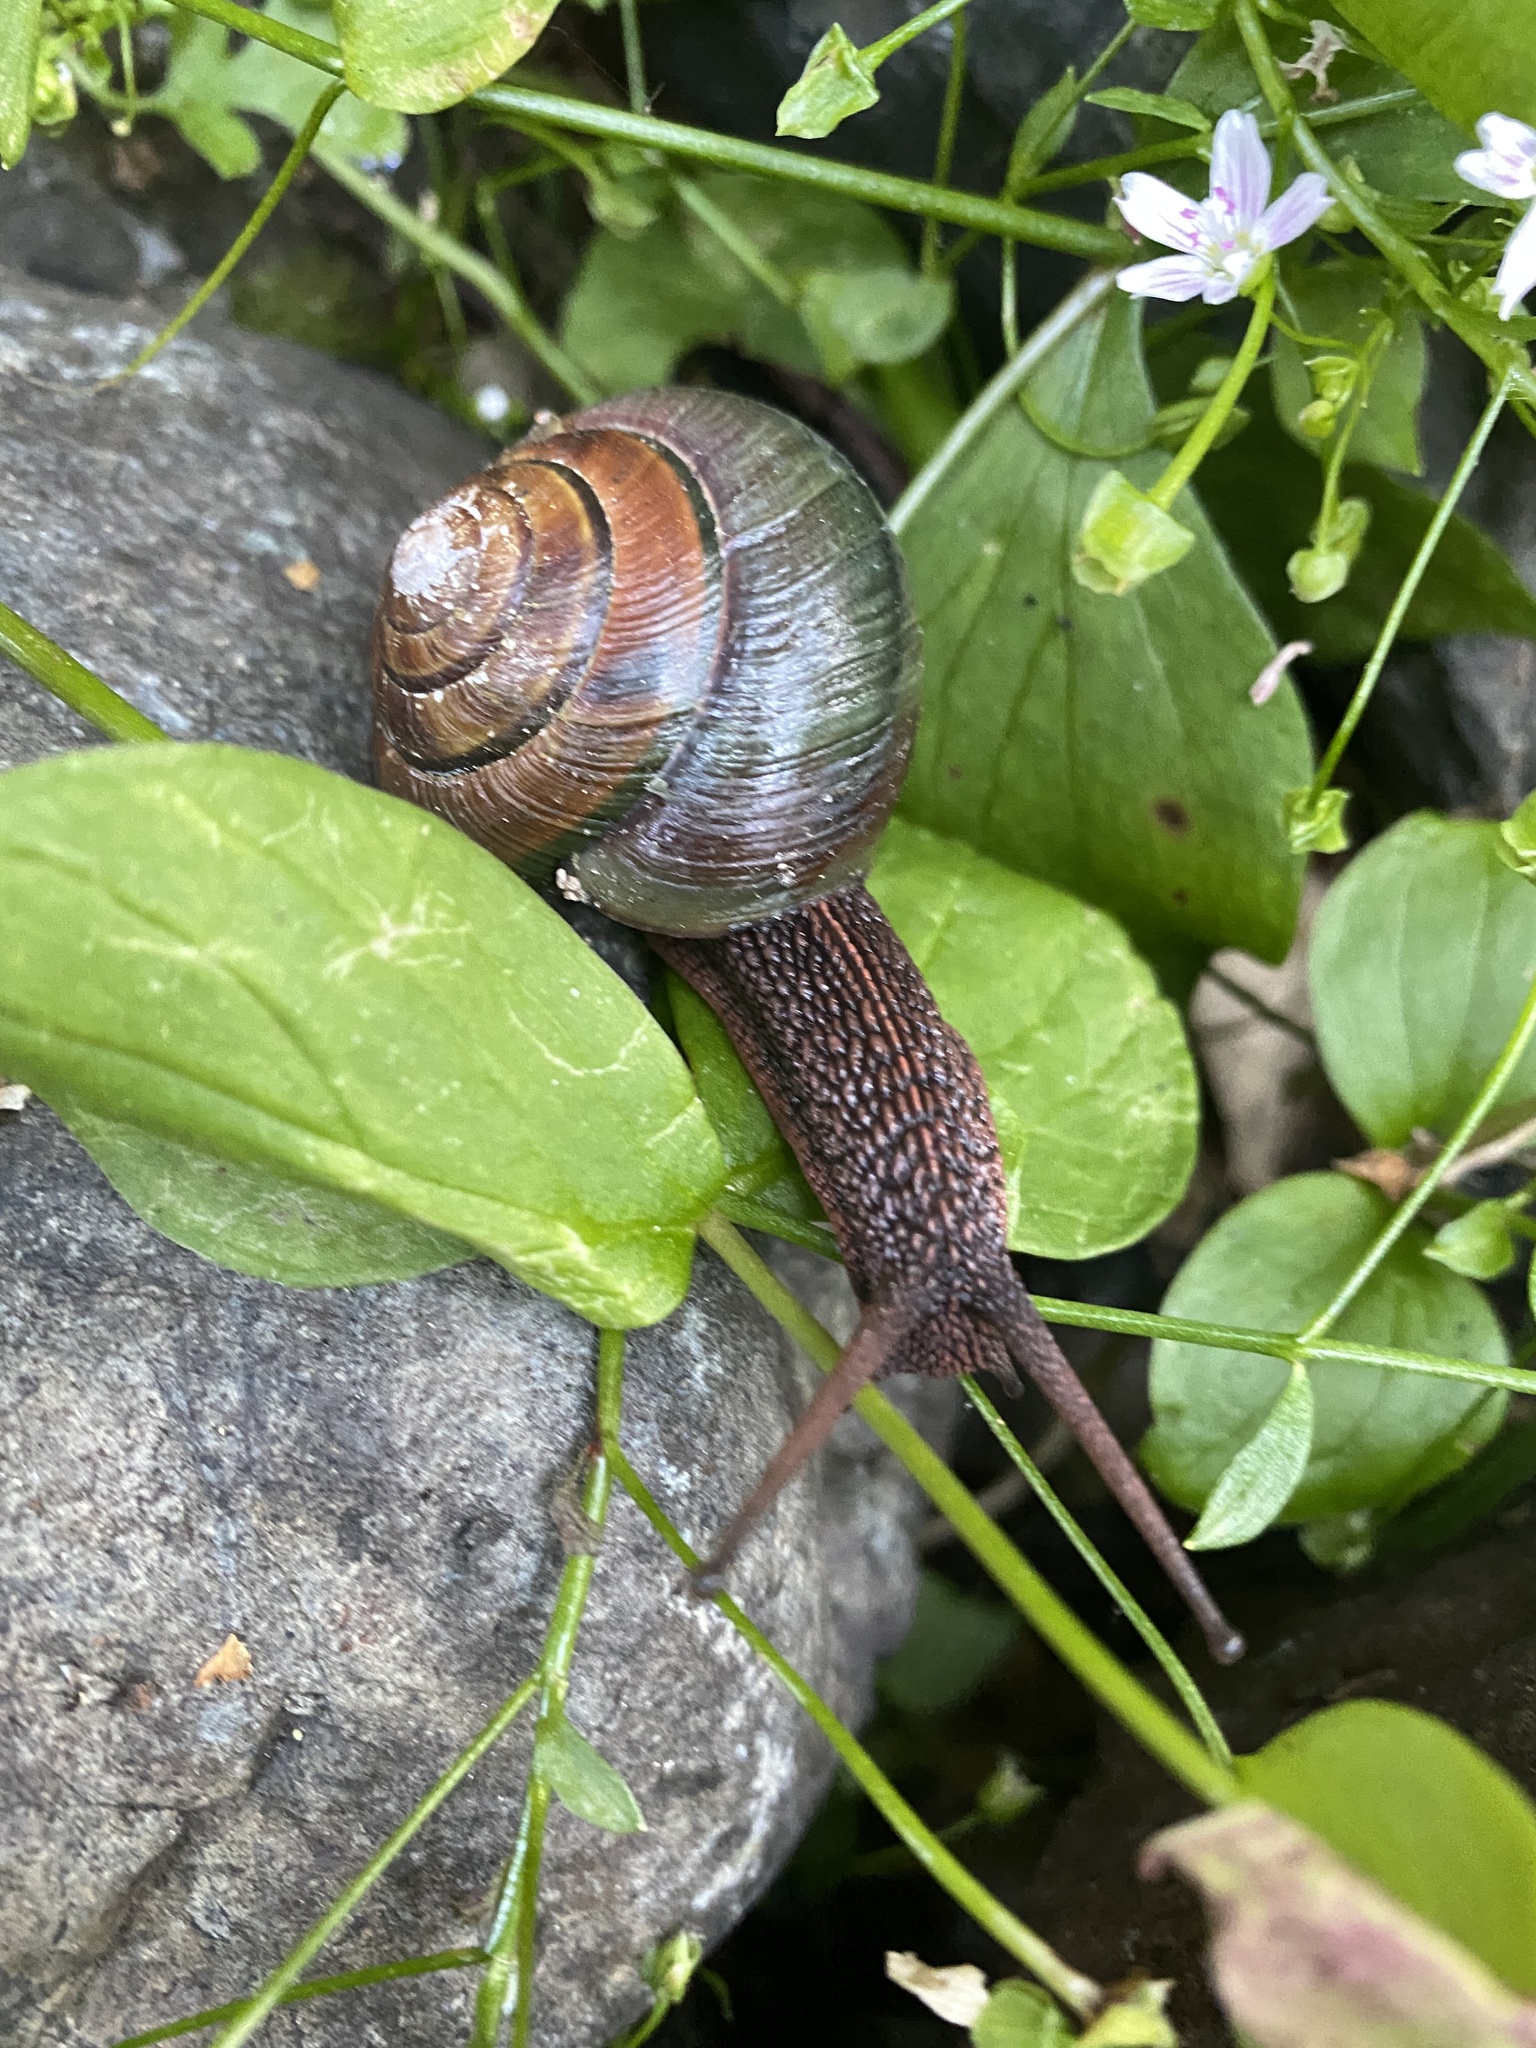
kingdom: Animalia
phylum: Mollusca
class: Gastropoda
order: Stylommatophora
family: Xanthonychidae
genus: Monadenia
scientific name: Monadenia fidelis
